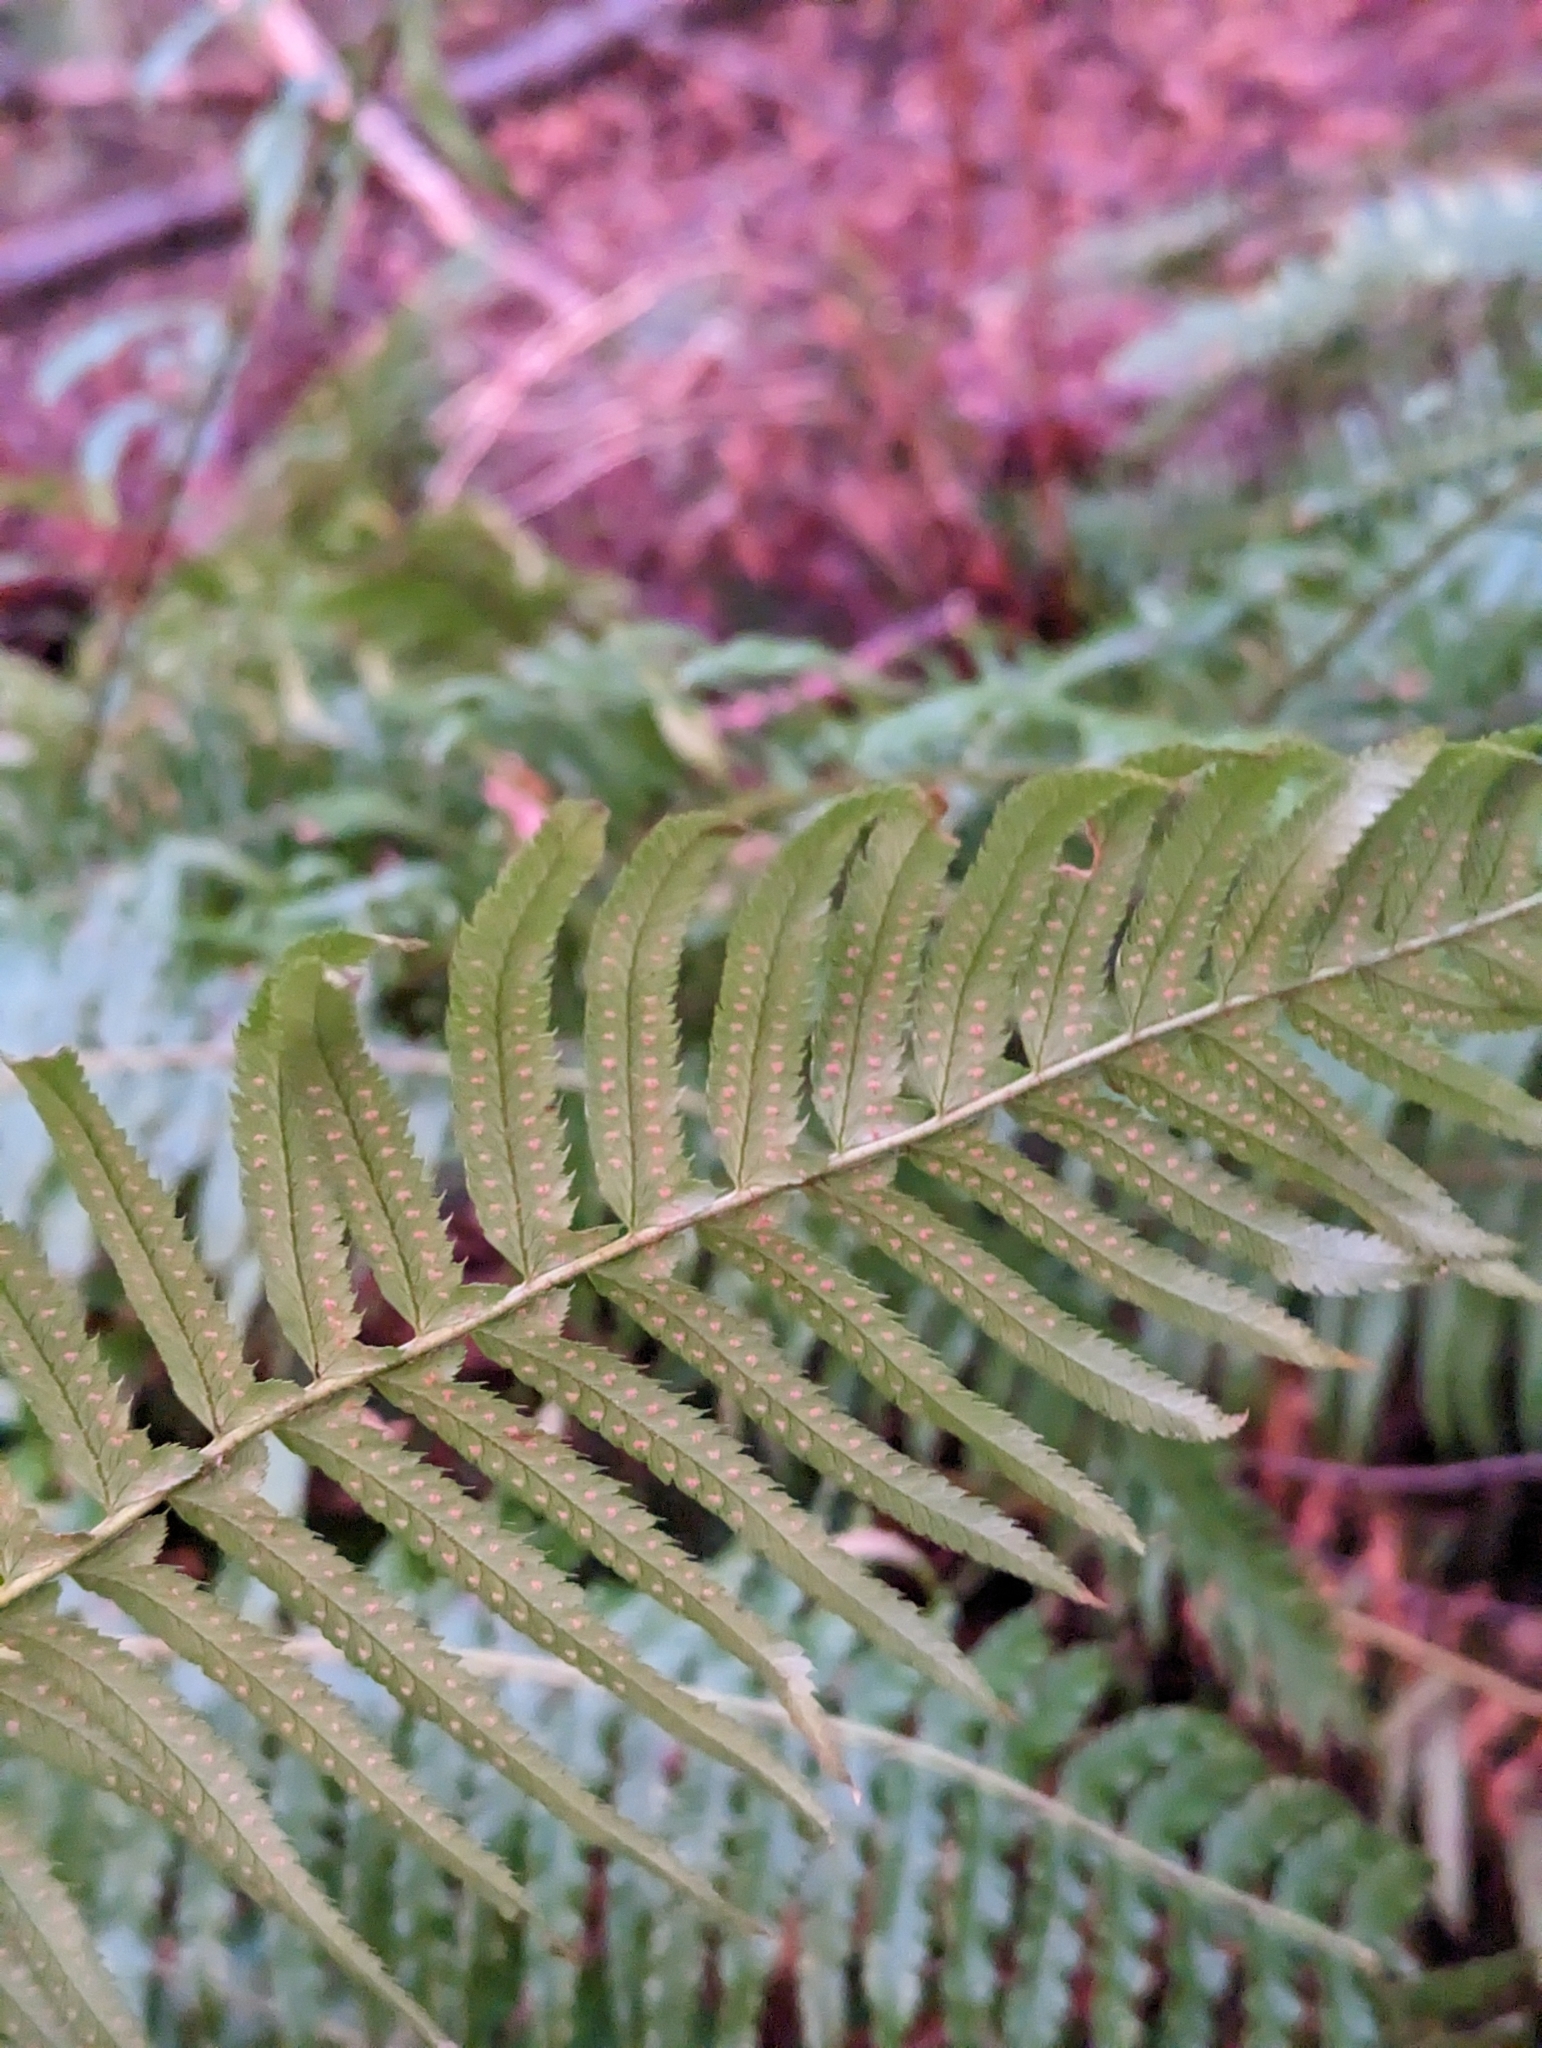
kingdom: Plantae
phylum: Tracheophyta
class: Polypodiopsida
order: Polypodiales
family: Dryopteridaceae
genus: Polystichum
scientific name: Polystichum munitum
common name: Western sword-fern
